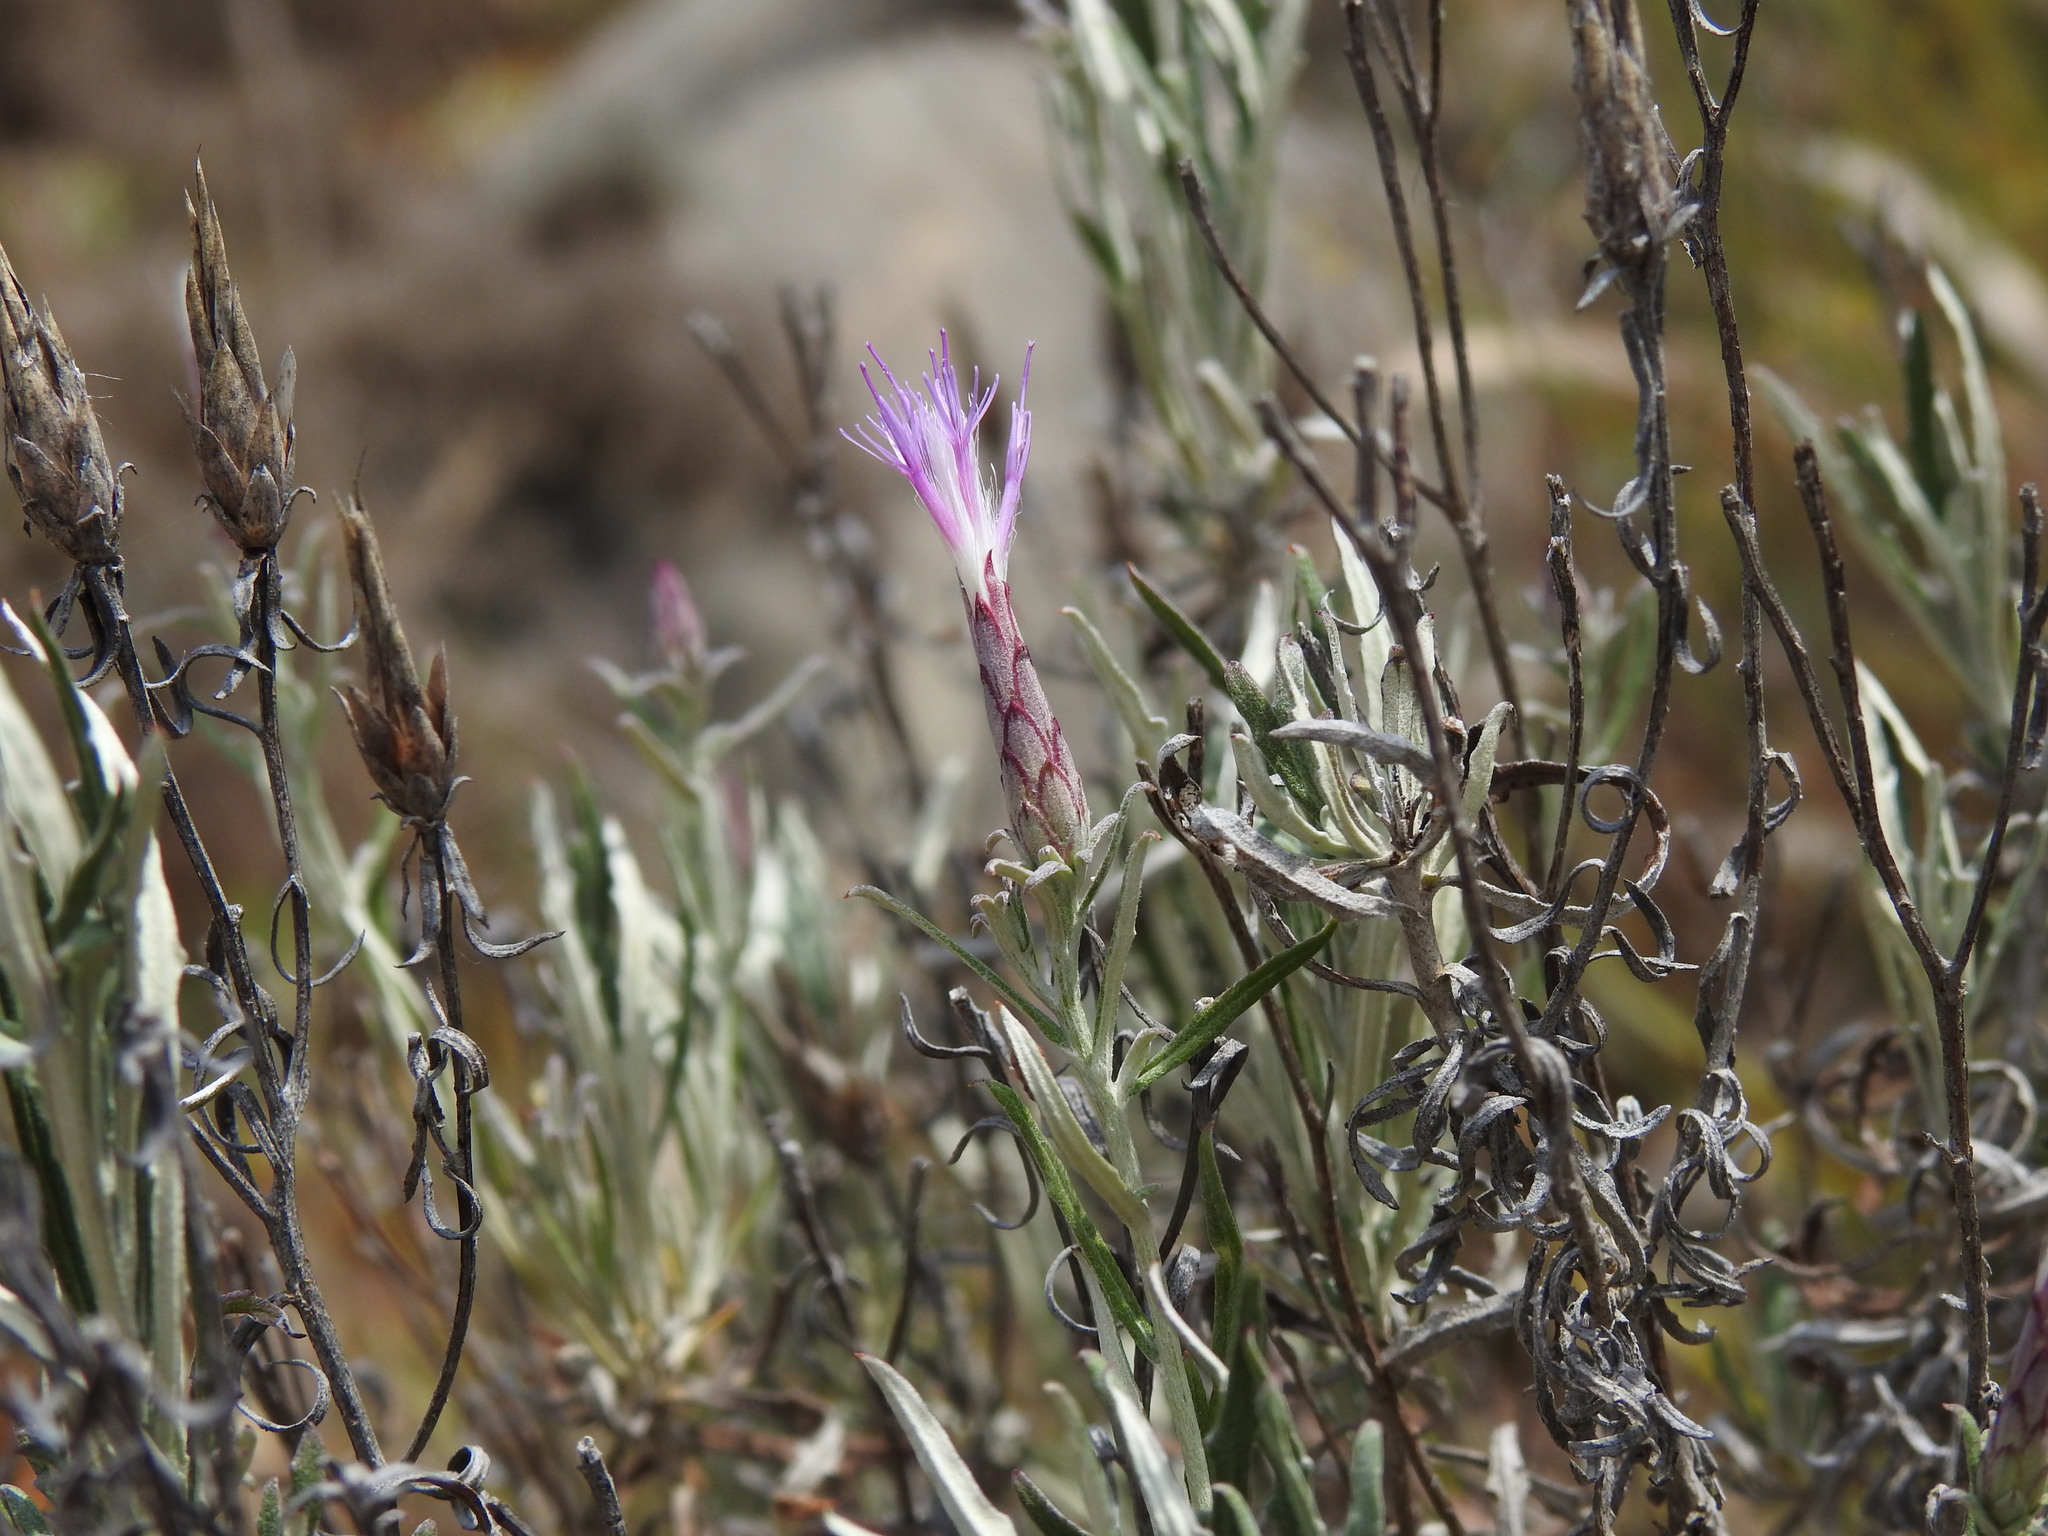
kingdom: Plantae
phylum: Tracheophyta
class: Magnoliopsida
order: Asterales
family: Asteraceae
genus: Staehelina
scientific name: Staehelina dubia
